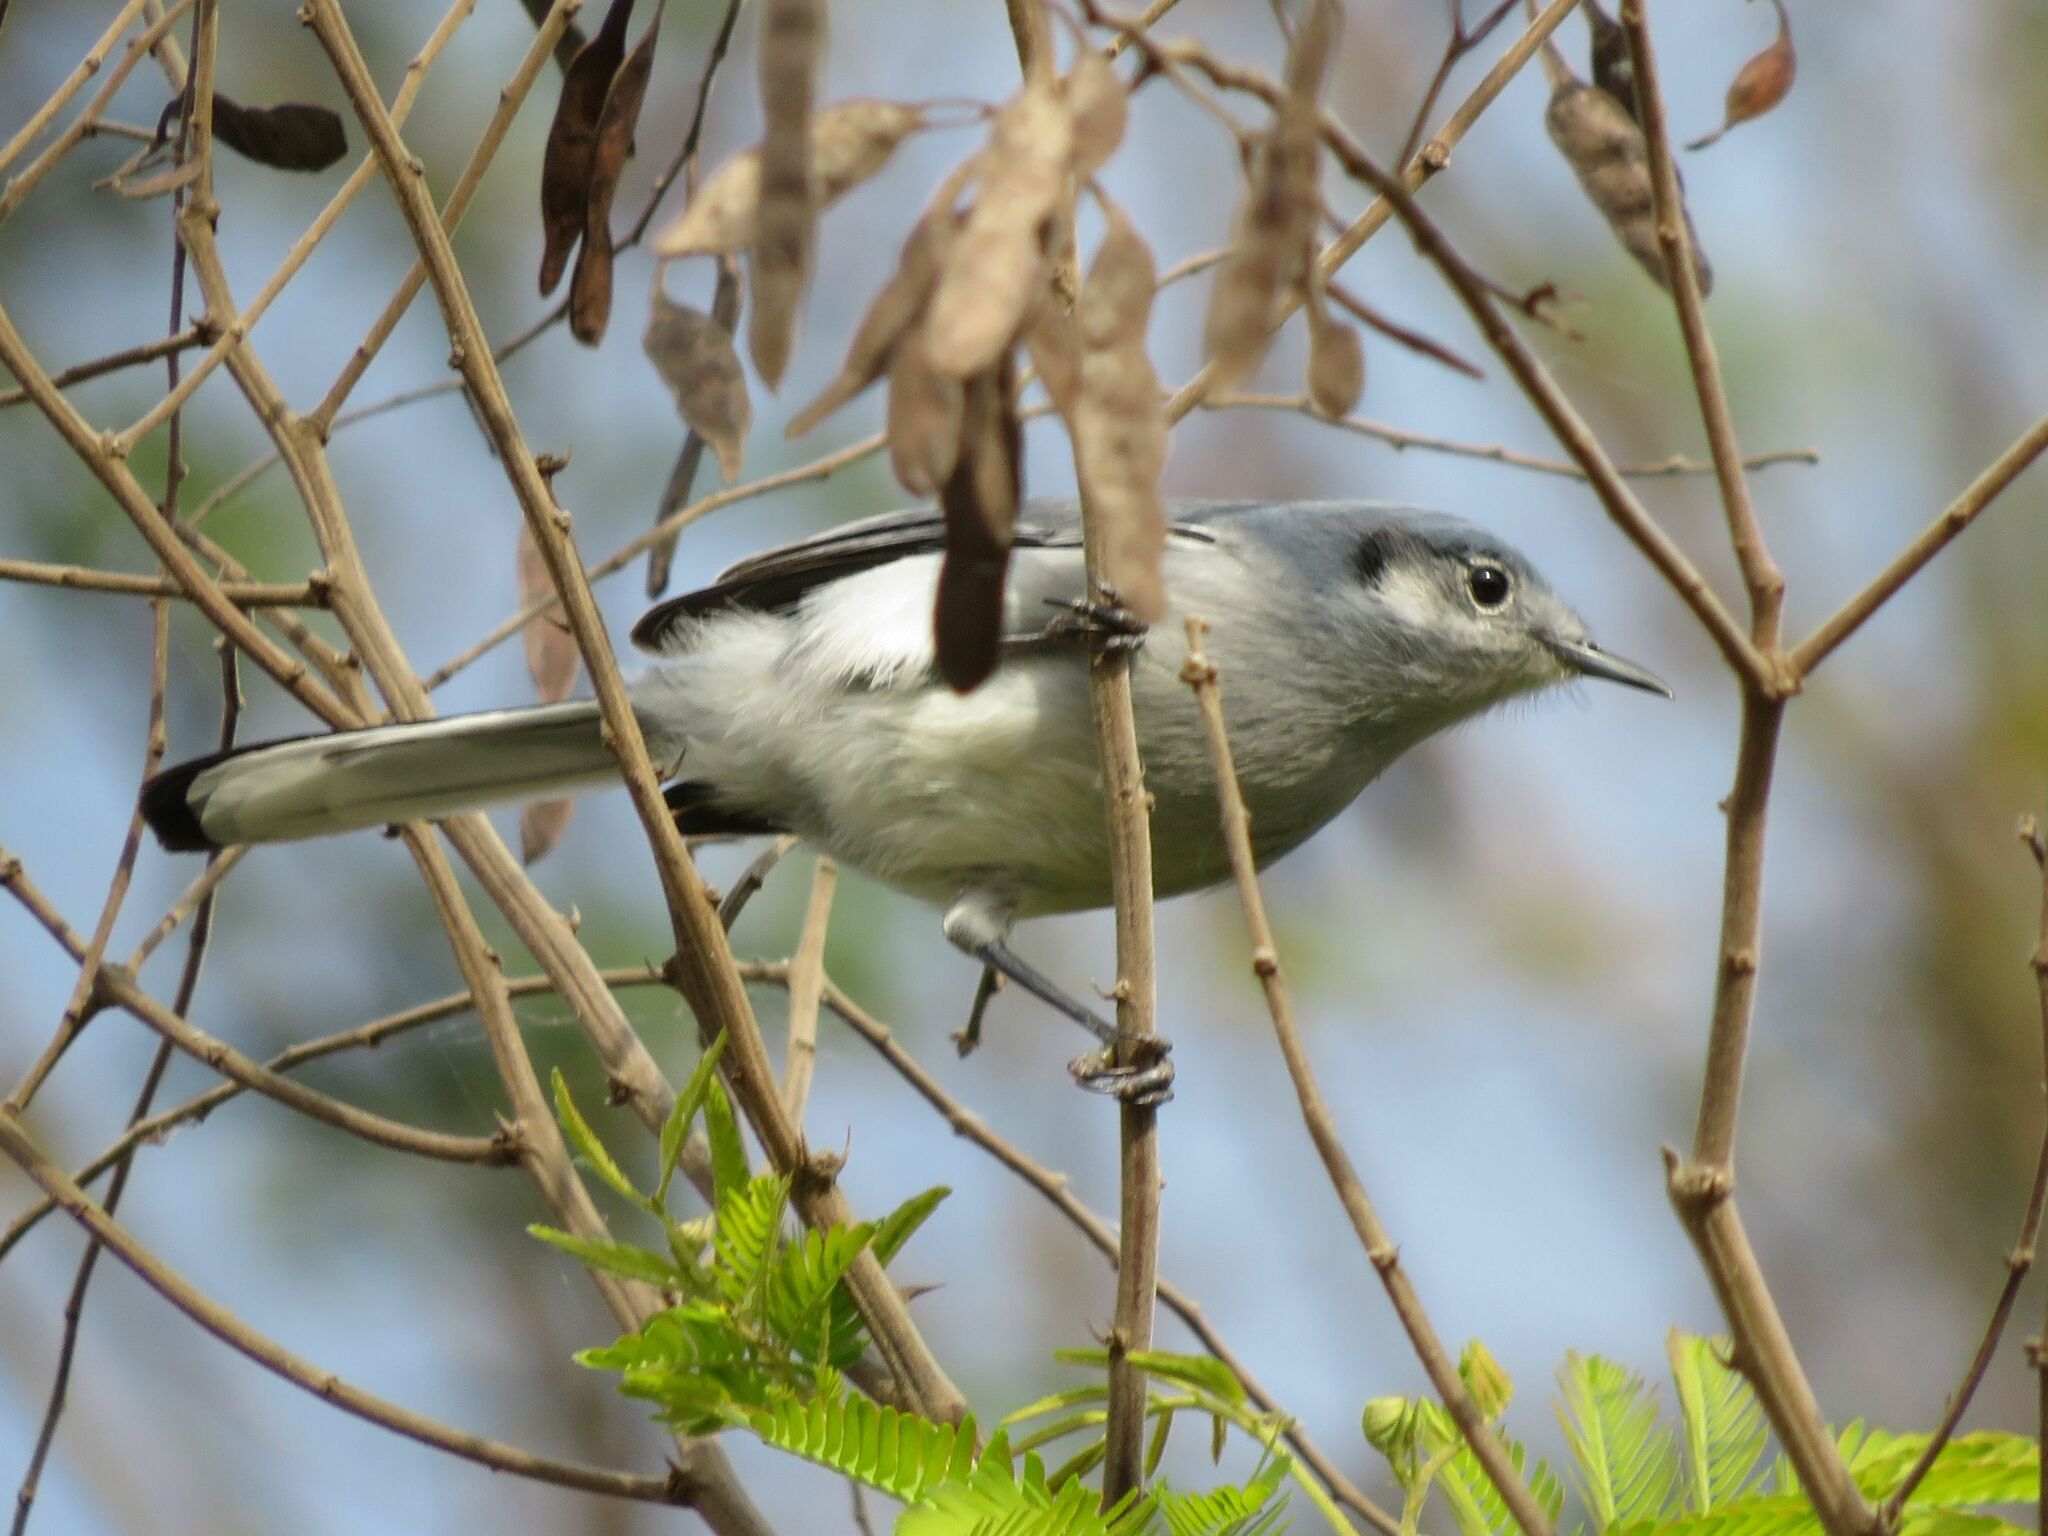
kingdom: Animalia
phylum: Chordata
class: Aves
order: Passeriformes
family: Polioptilidae
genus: Polioptila
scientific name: Polioptila dumicola
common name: Masked gnatcatcher
